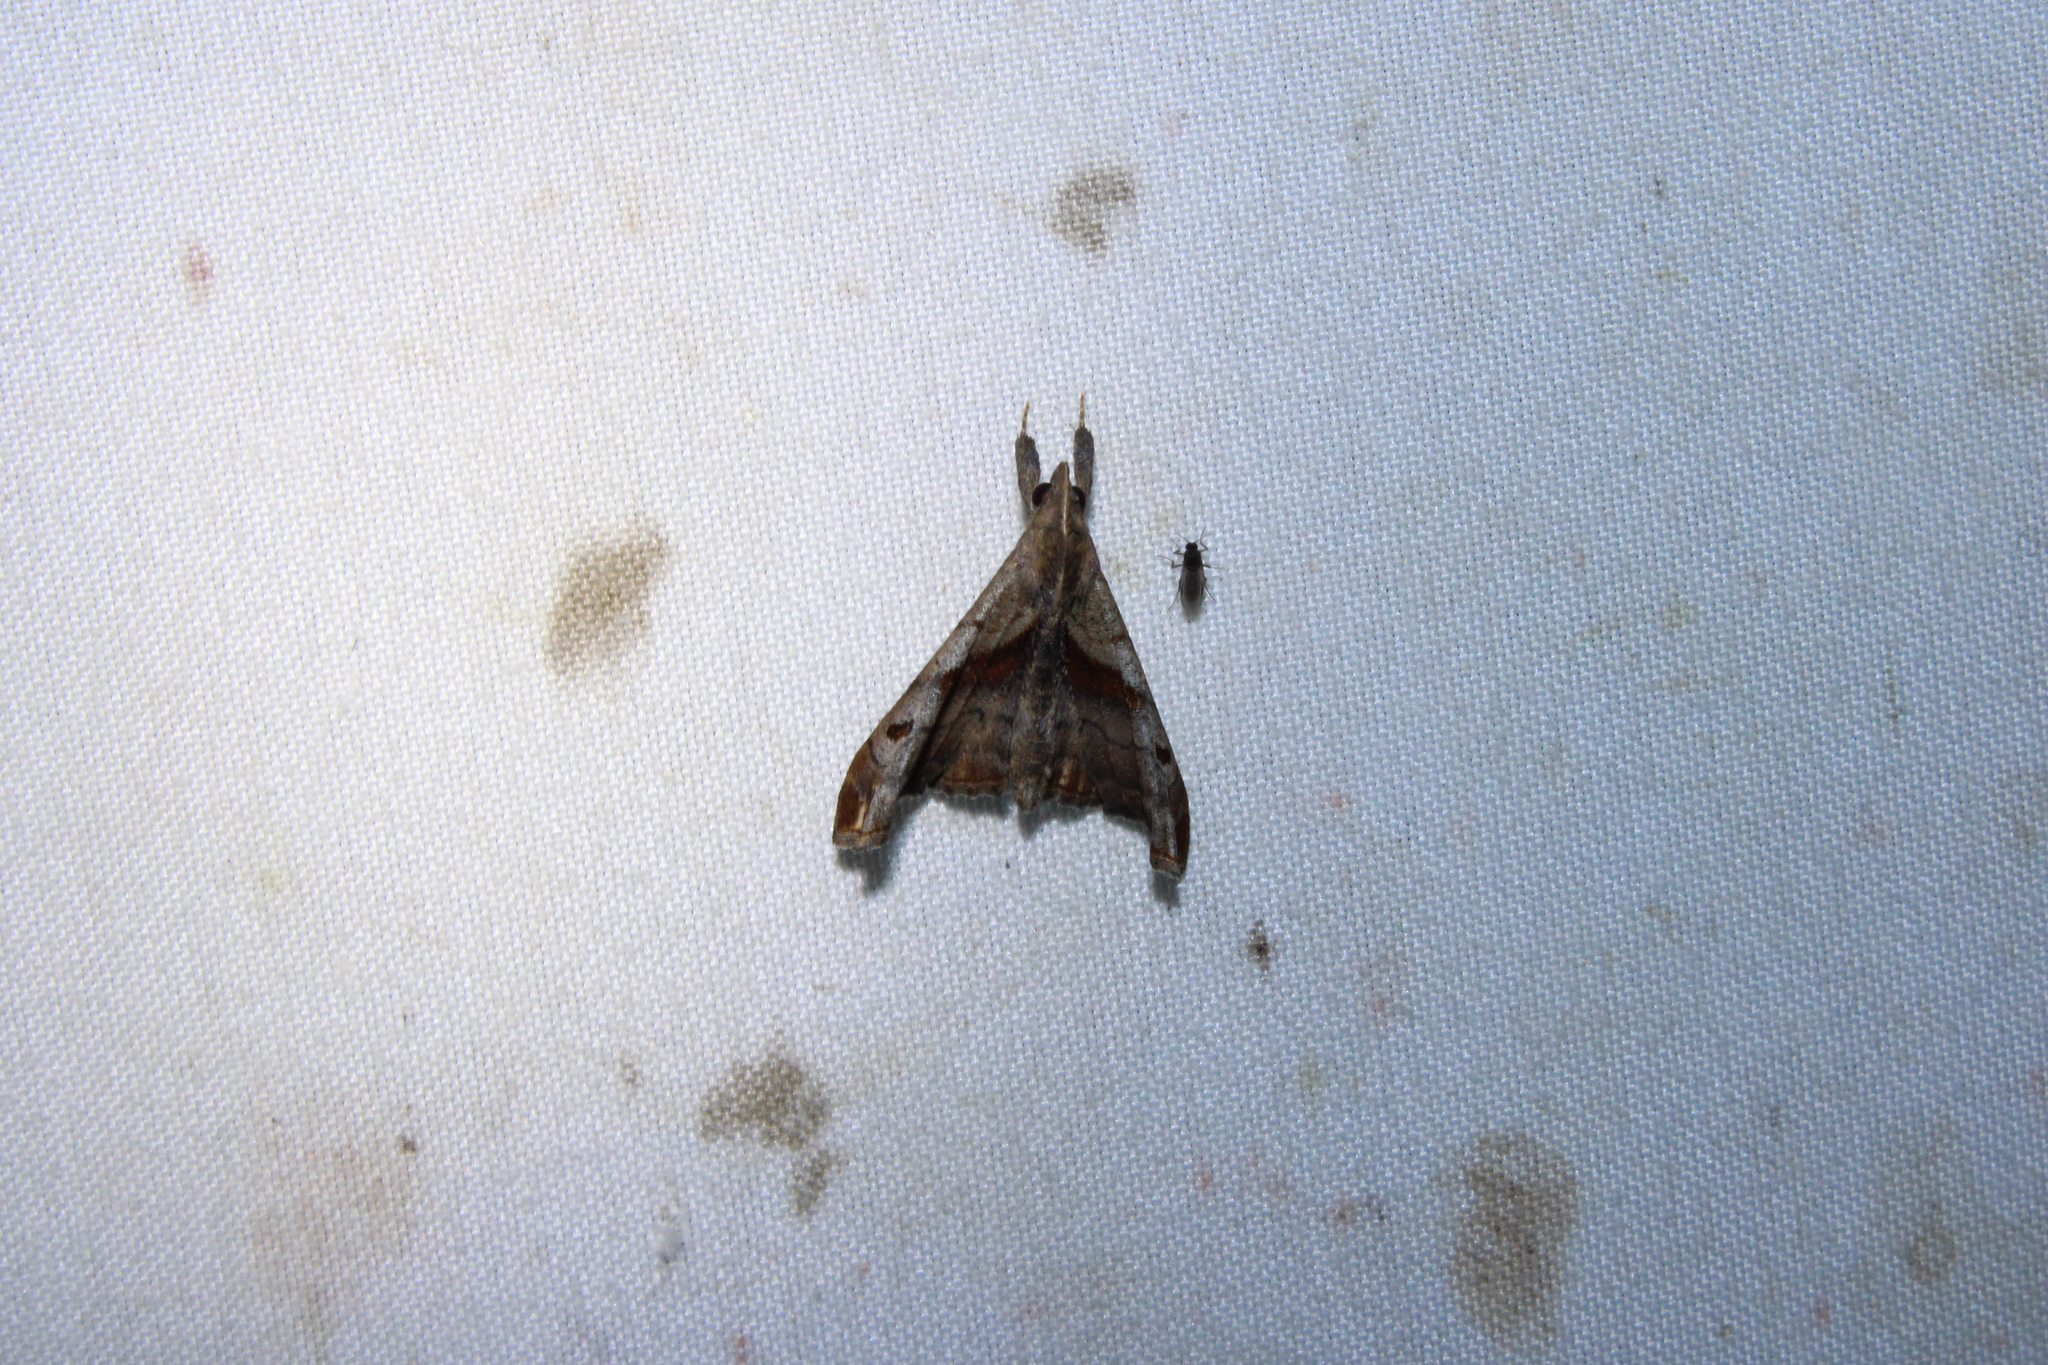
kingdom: Animalia
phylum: Arthropoda
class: Insecta
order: Lepidoptera
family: Erebidae
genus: Palthis
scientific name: Palthis angulalis
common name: Dark-spotted palthis moth
